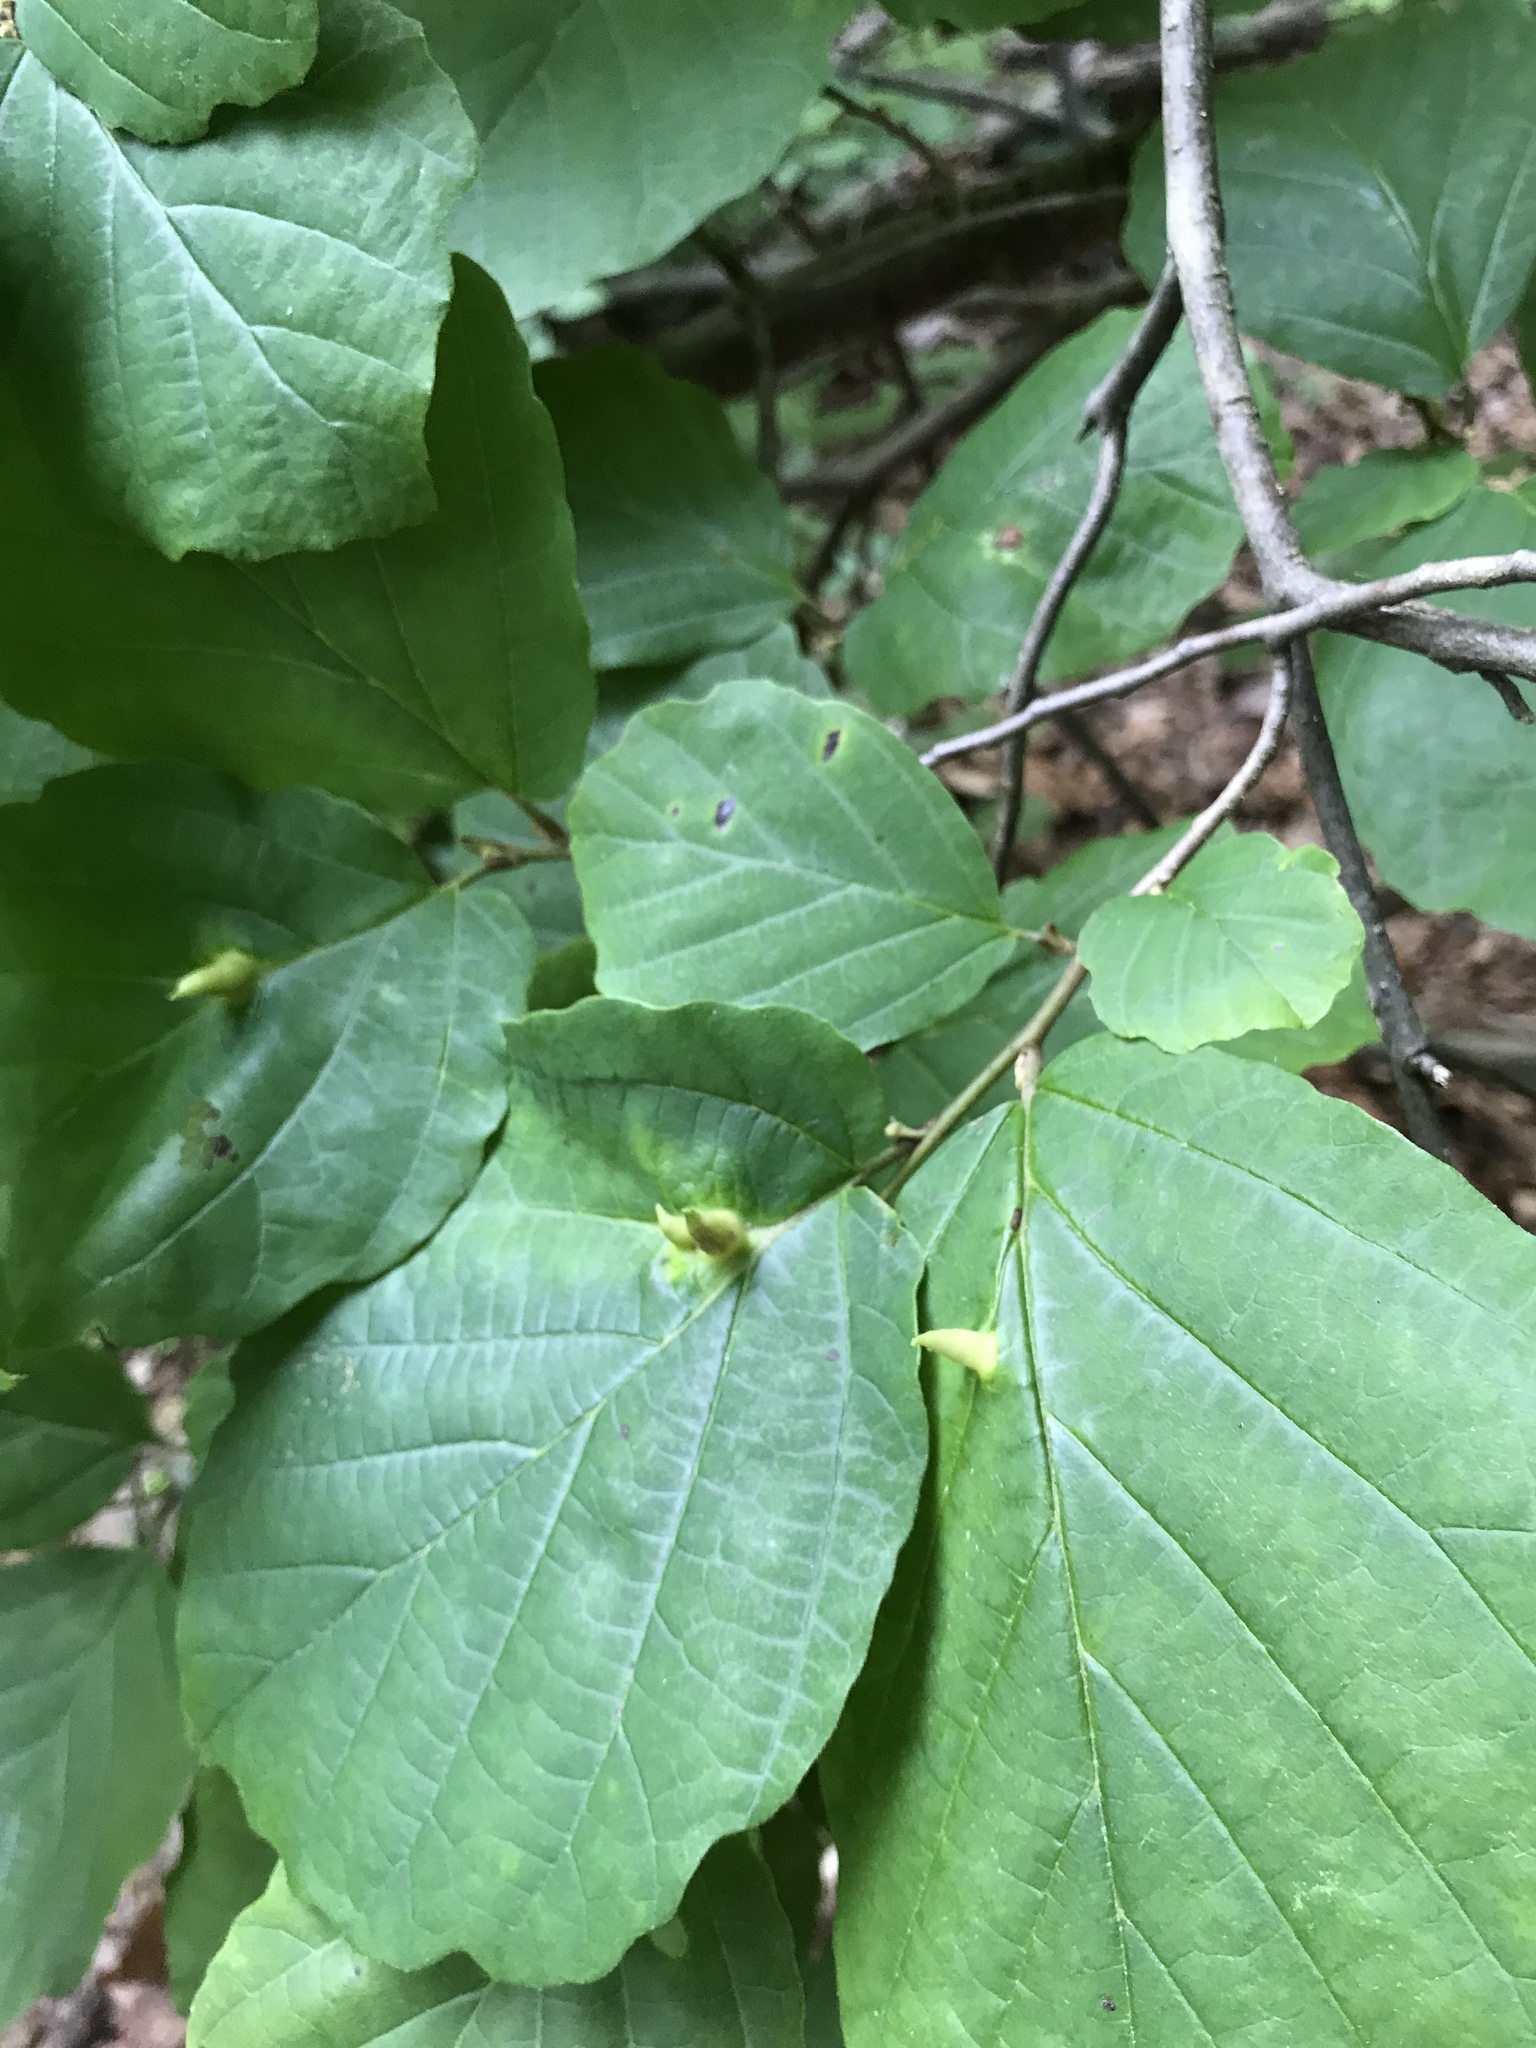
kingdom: Plantae
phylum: Tracheophyta
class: Magnoliopsida
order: Saxifragales
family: Hamamelidaceae
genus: Hamamelis
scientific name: Hamamelis virginiana
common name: Witch-hazel
